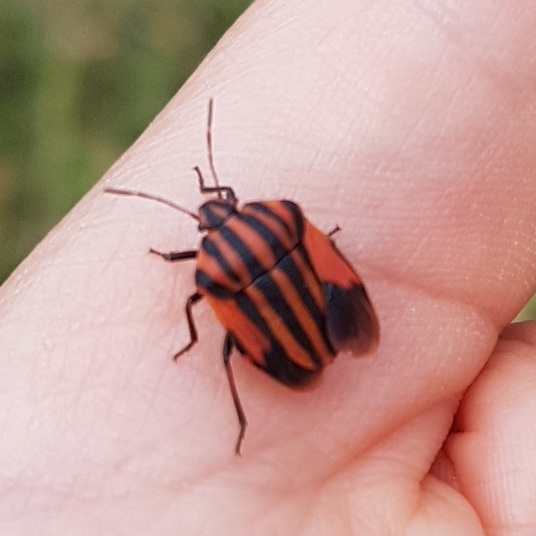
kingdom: Animalia
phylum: Arthropoda
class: Insecta
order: Hemiptera
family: Pentatomidae
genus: Graphosoma
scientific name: Graphosoma italicum
